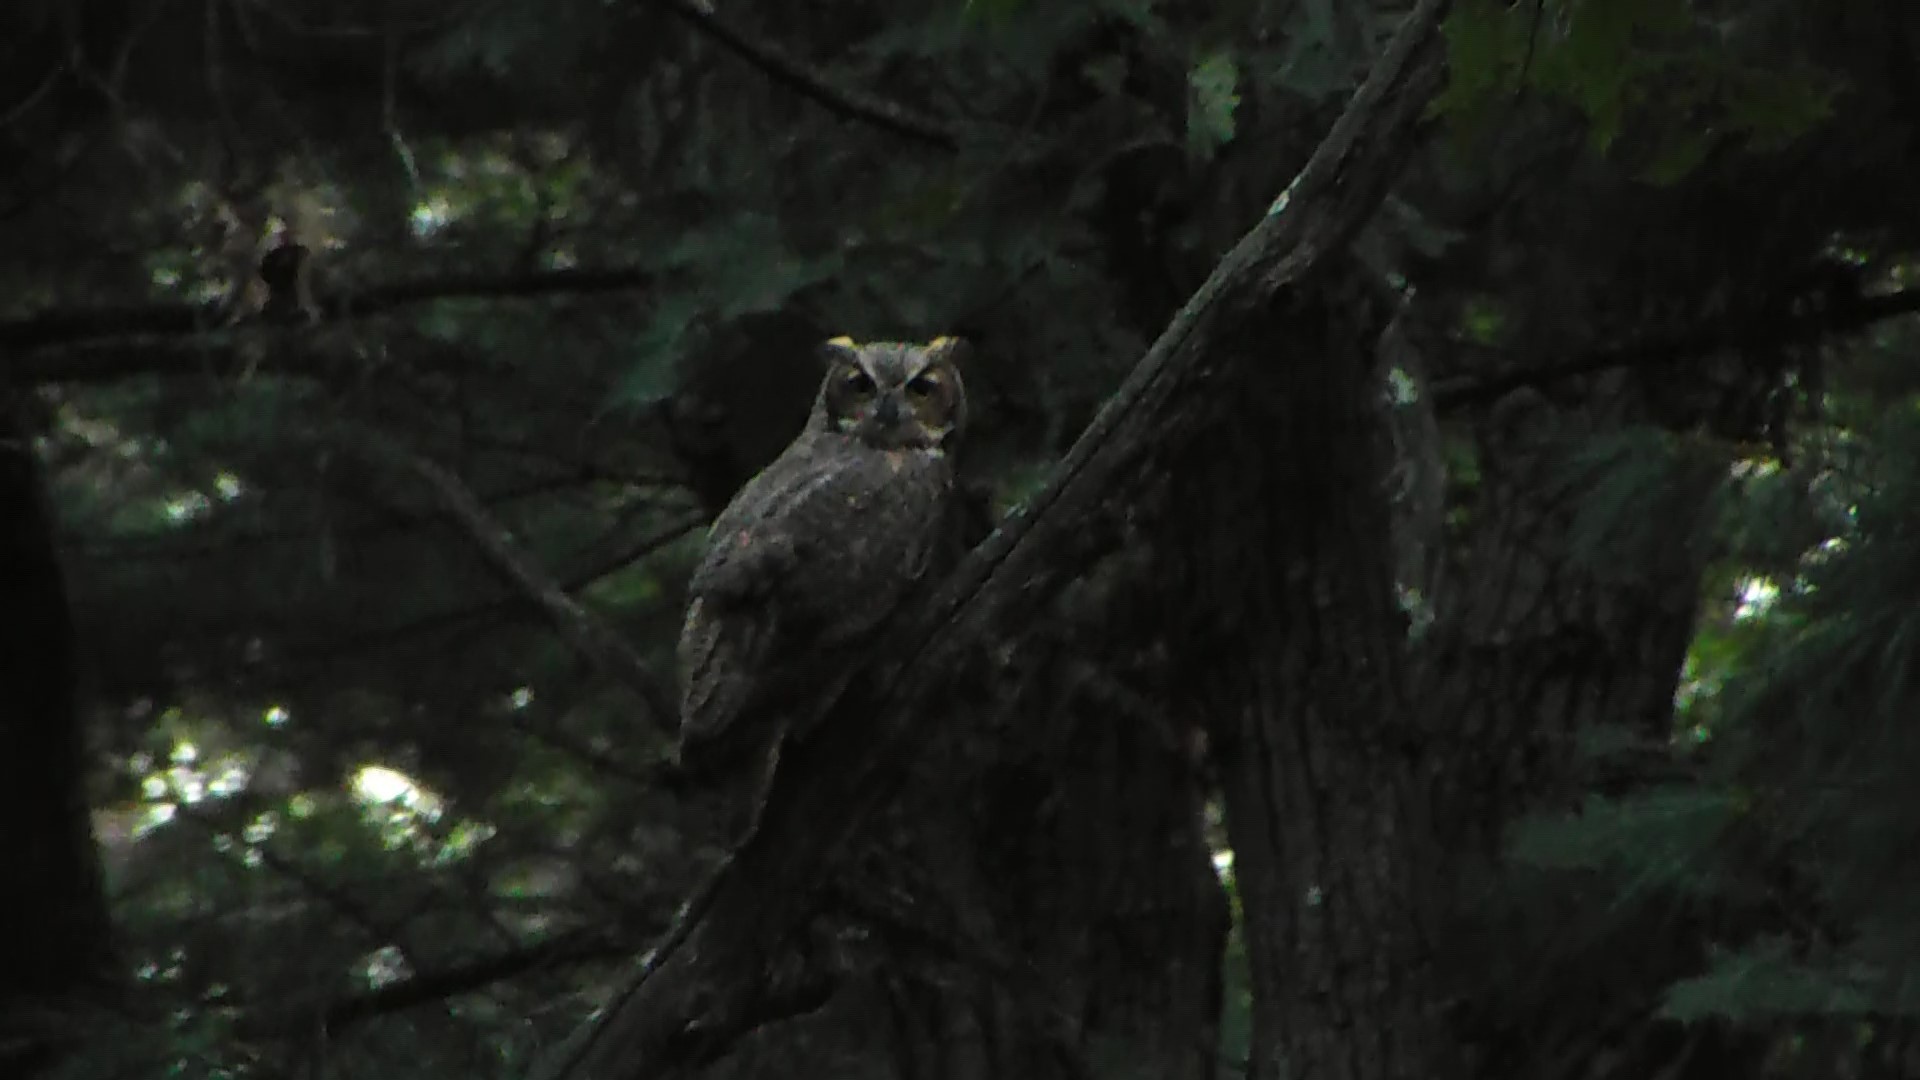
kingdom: Animalia
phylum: Chordata
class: Aves
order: Strigiformes
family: Strigidae
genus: Bubo
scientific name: Bubo virginianus
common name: Great horned owl
